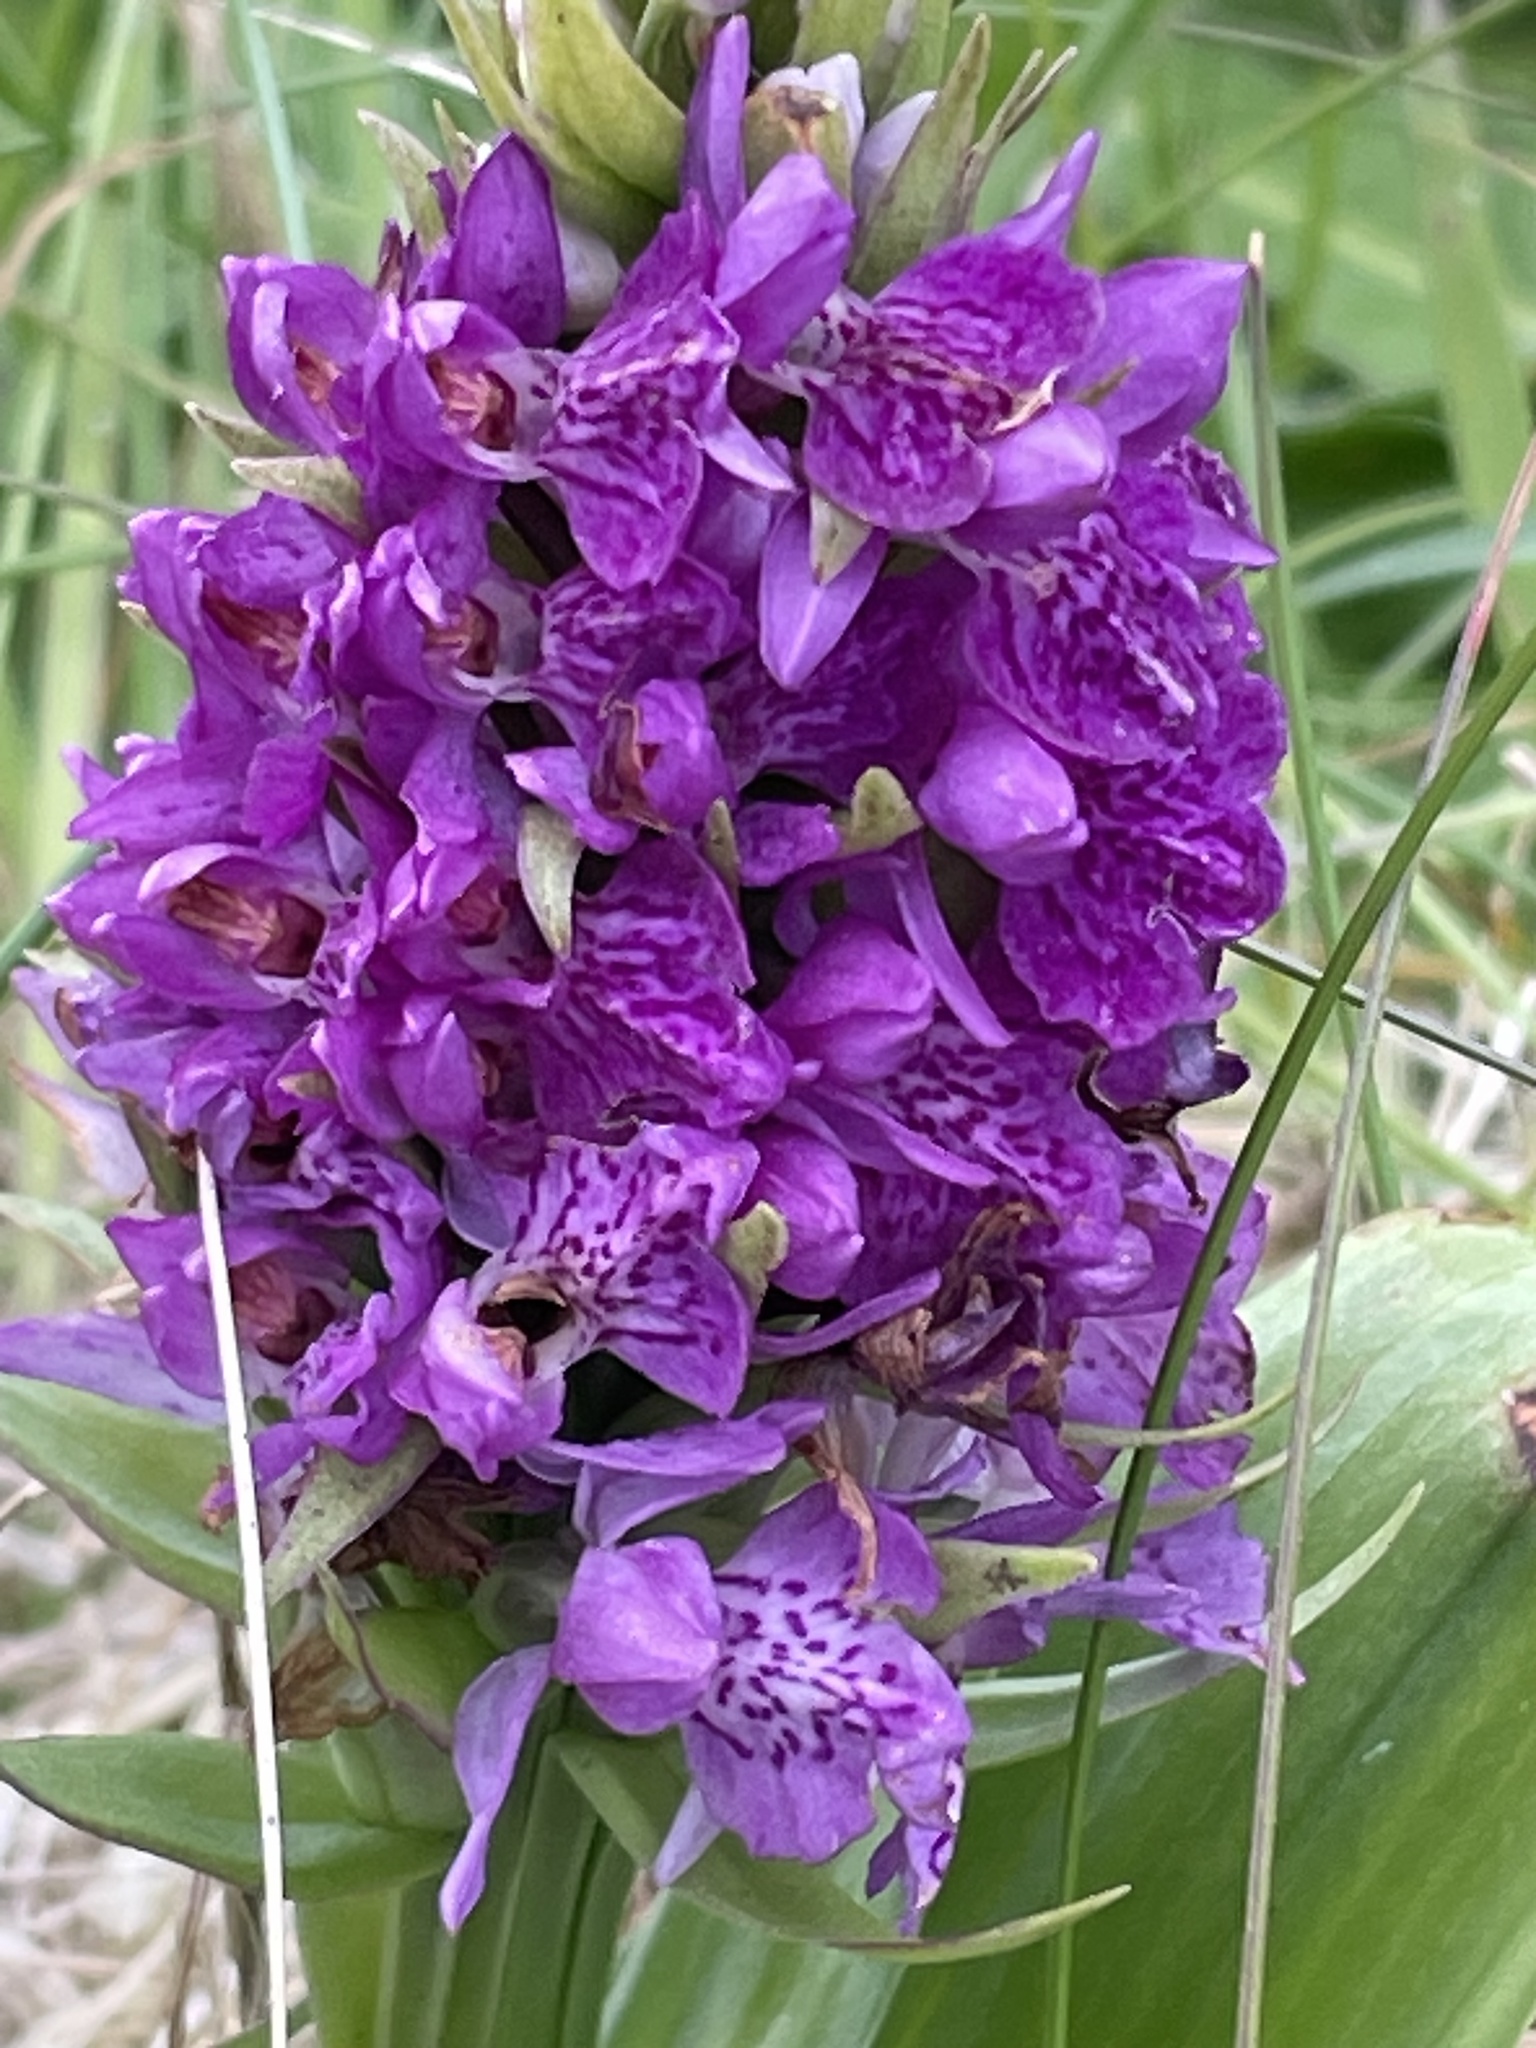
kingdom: Plantae
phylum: Tracheophyta
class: Liliopsida
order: Asparagales
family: Orchidaceae
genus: Dactylorhiza
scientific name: Dactylorhiza majalis
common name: Marsh orchid
